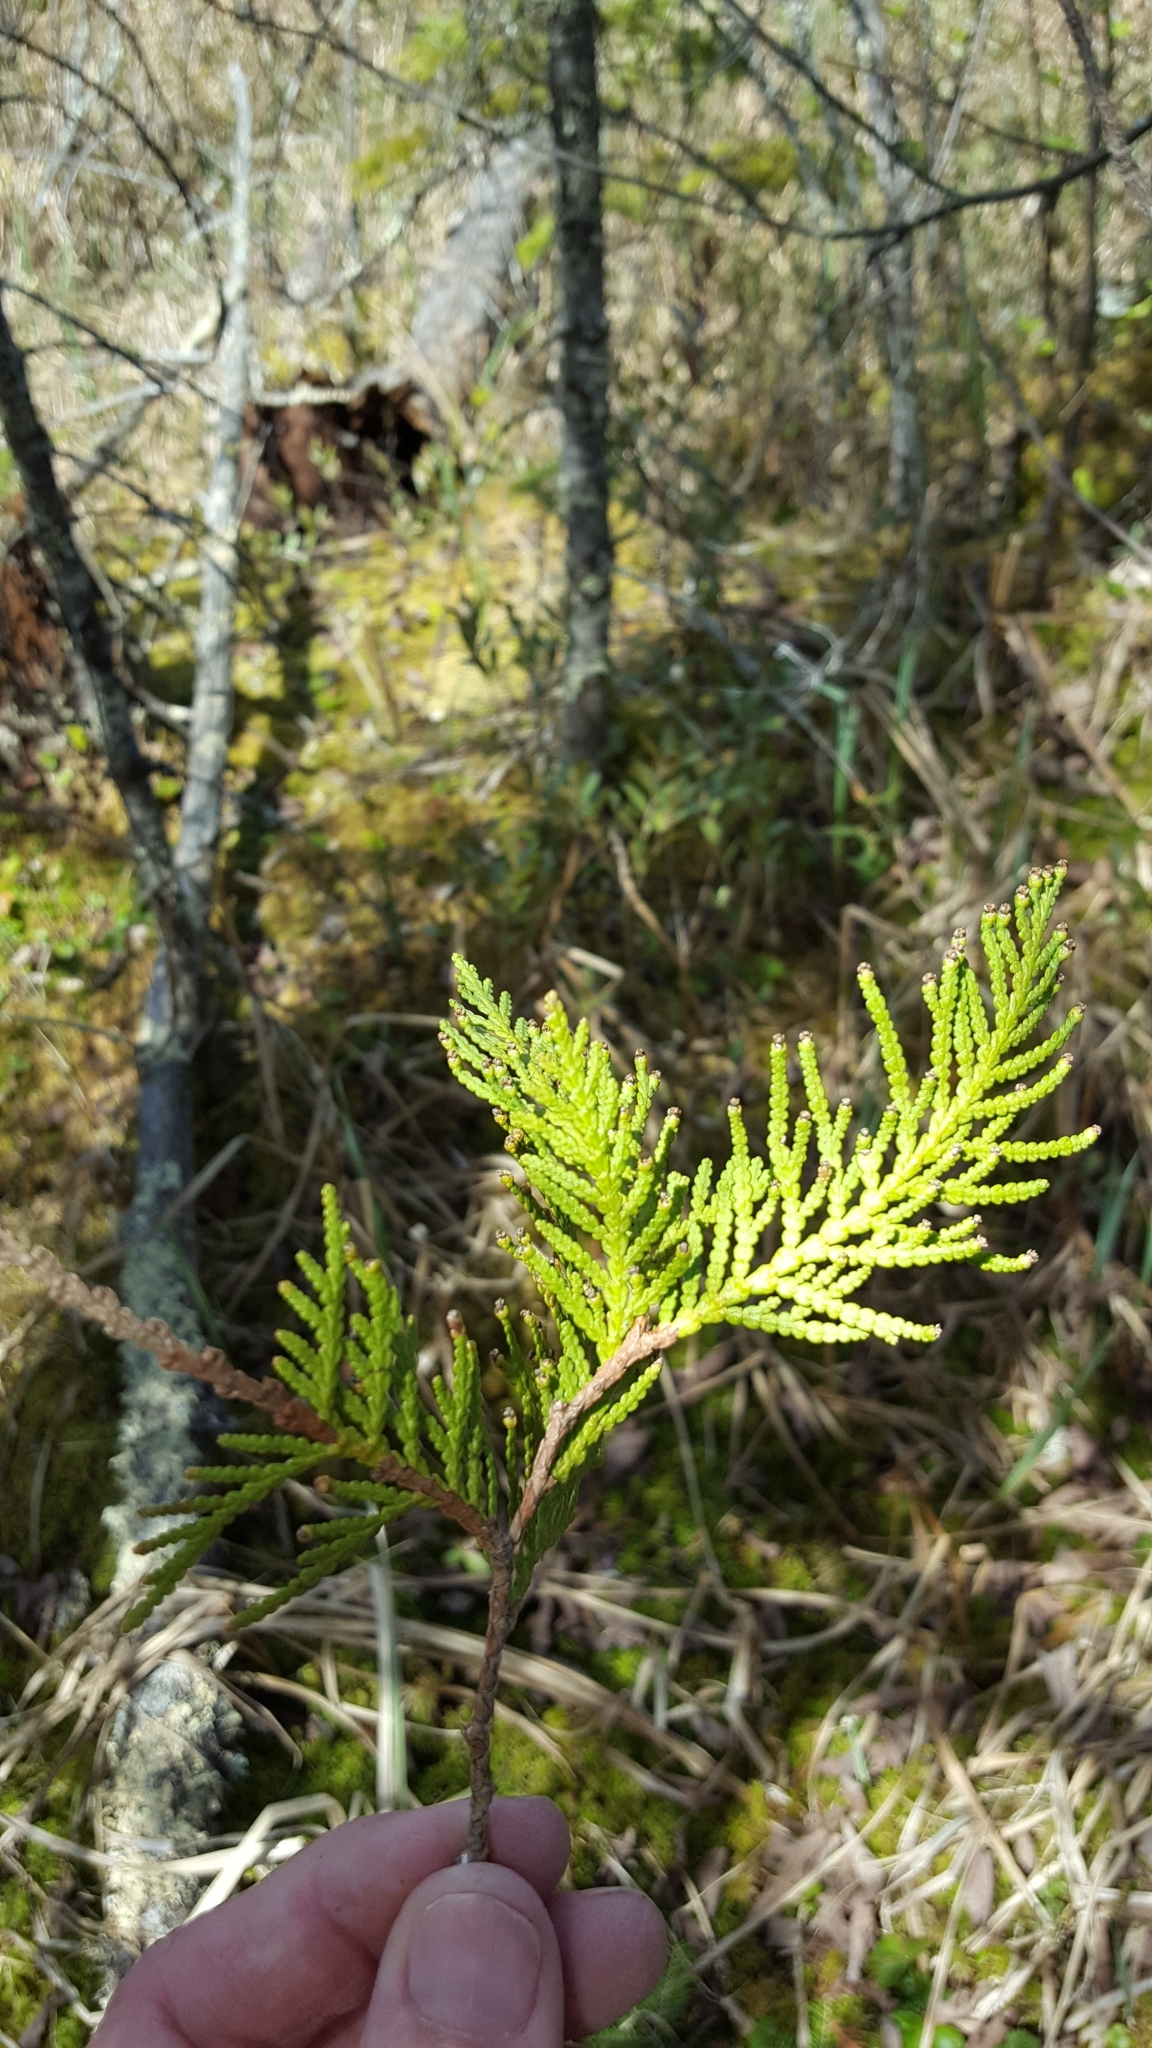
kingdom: Plantae
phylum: Tracheophyta
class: Pinopsida
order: Pinales
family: Cupressaceae
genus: Thuja
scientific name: Thuja occidentalis
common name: Northern white-cedar
